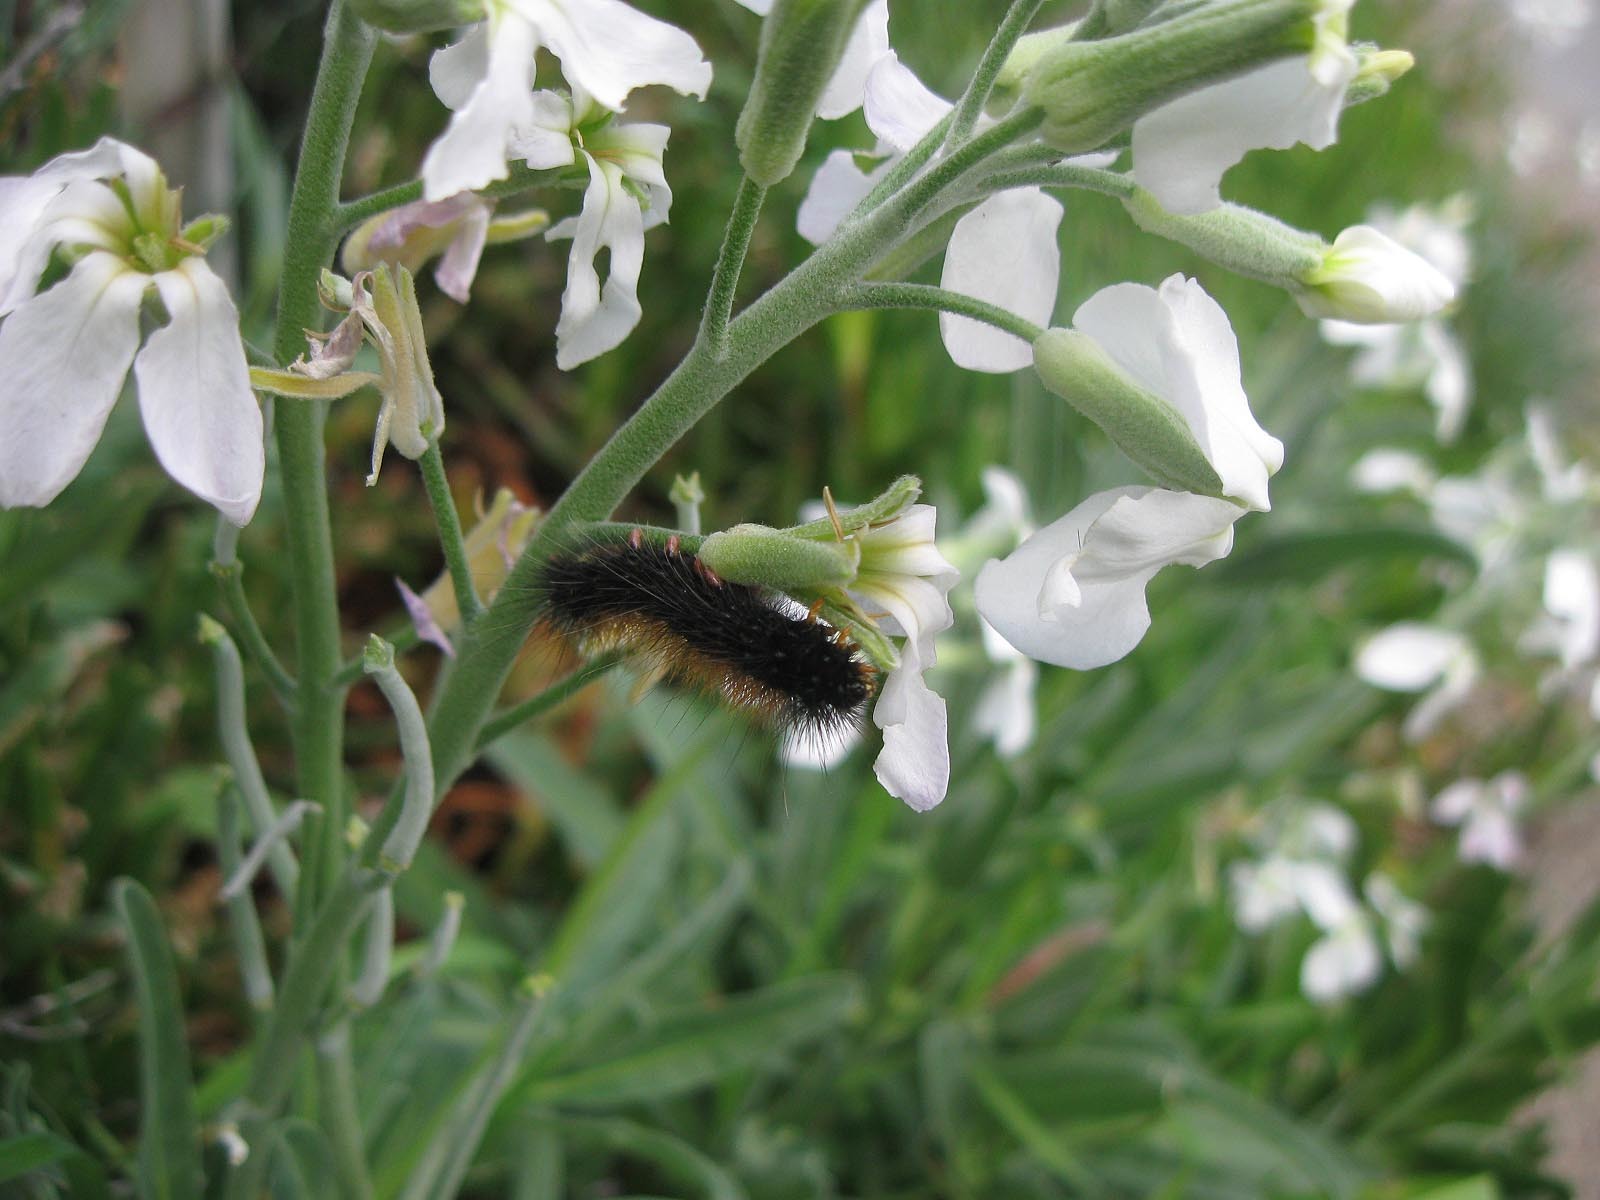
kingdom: Plantae
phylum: Tracheophyta
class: Magnoliopsida
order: Brassicales
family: Brassicaceae
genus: Matthiola
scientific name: Matthiola incana
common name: Hoary stock
